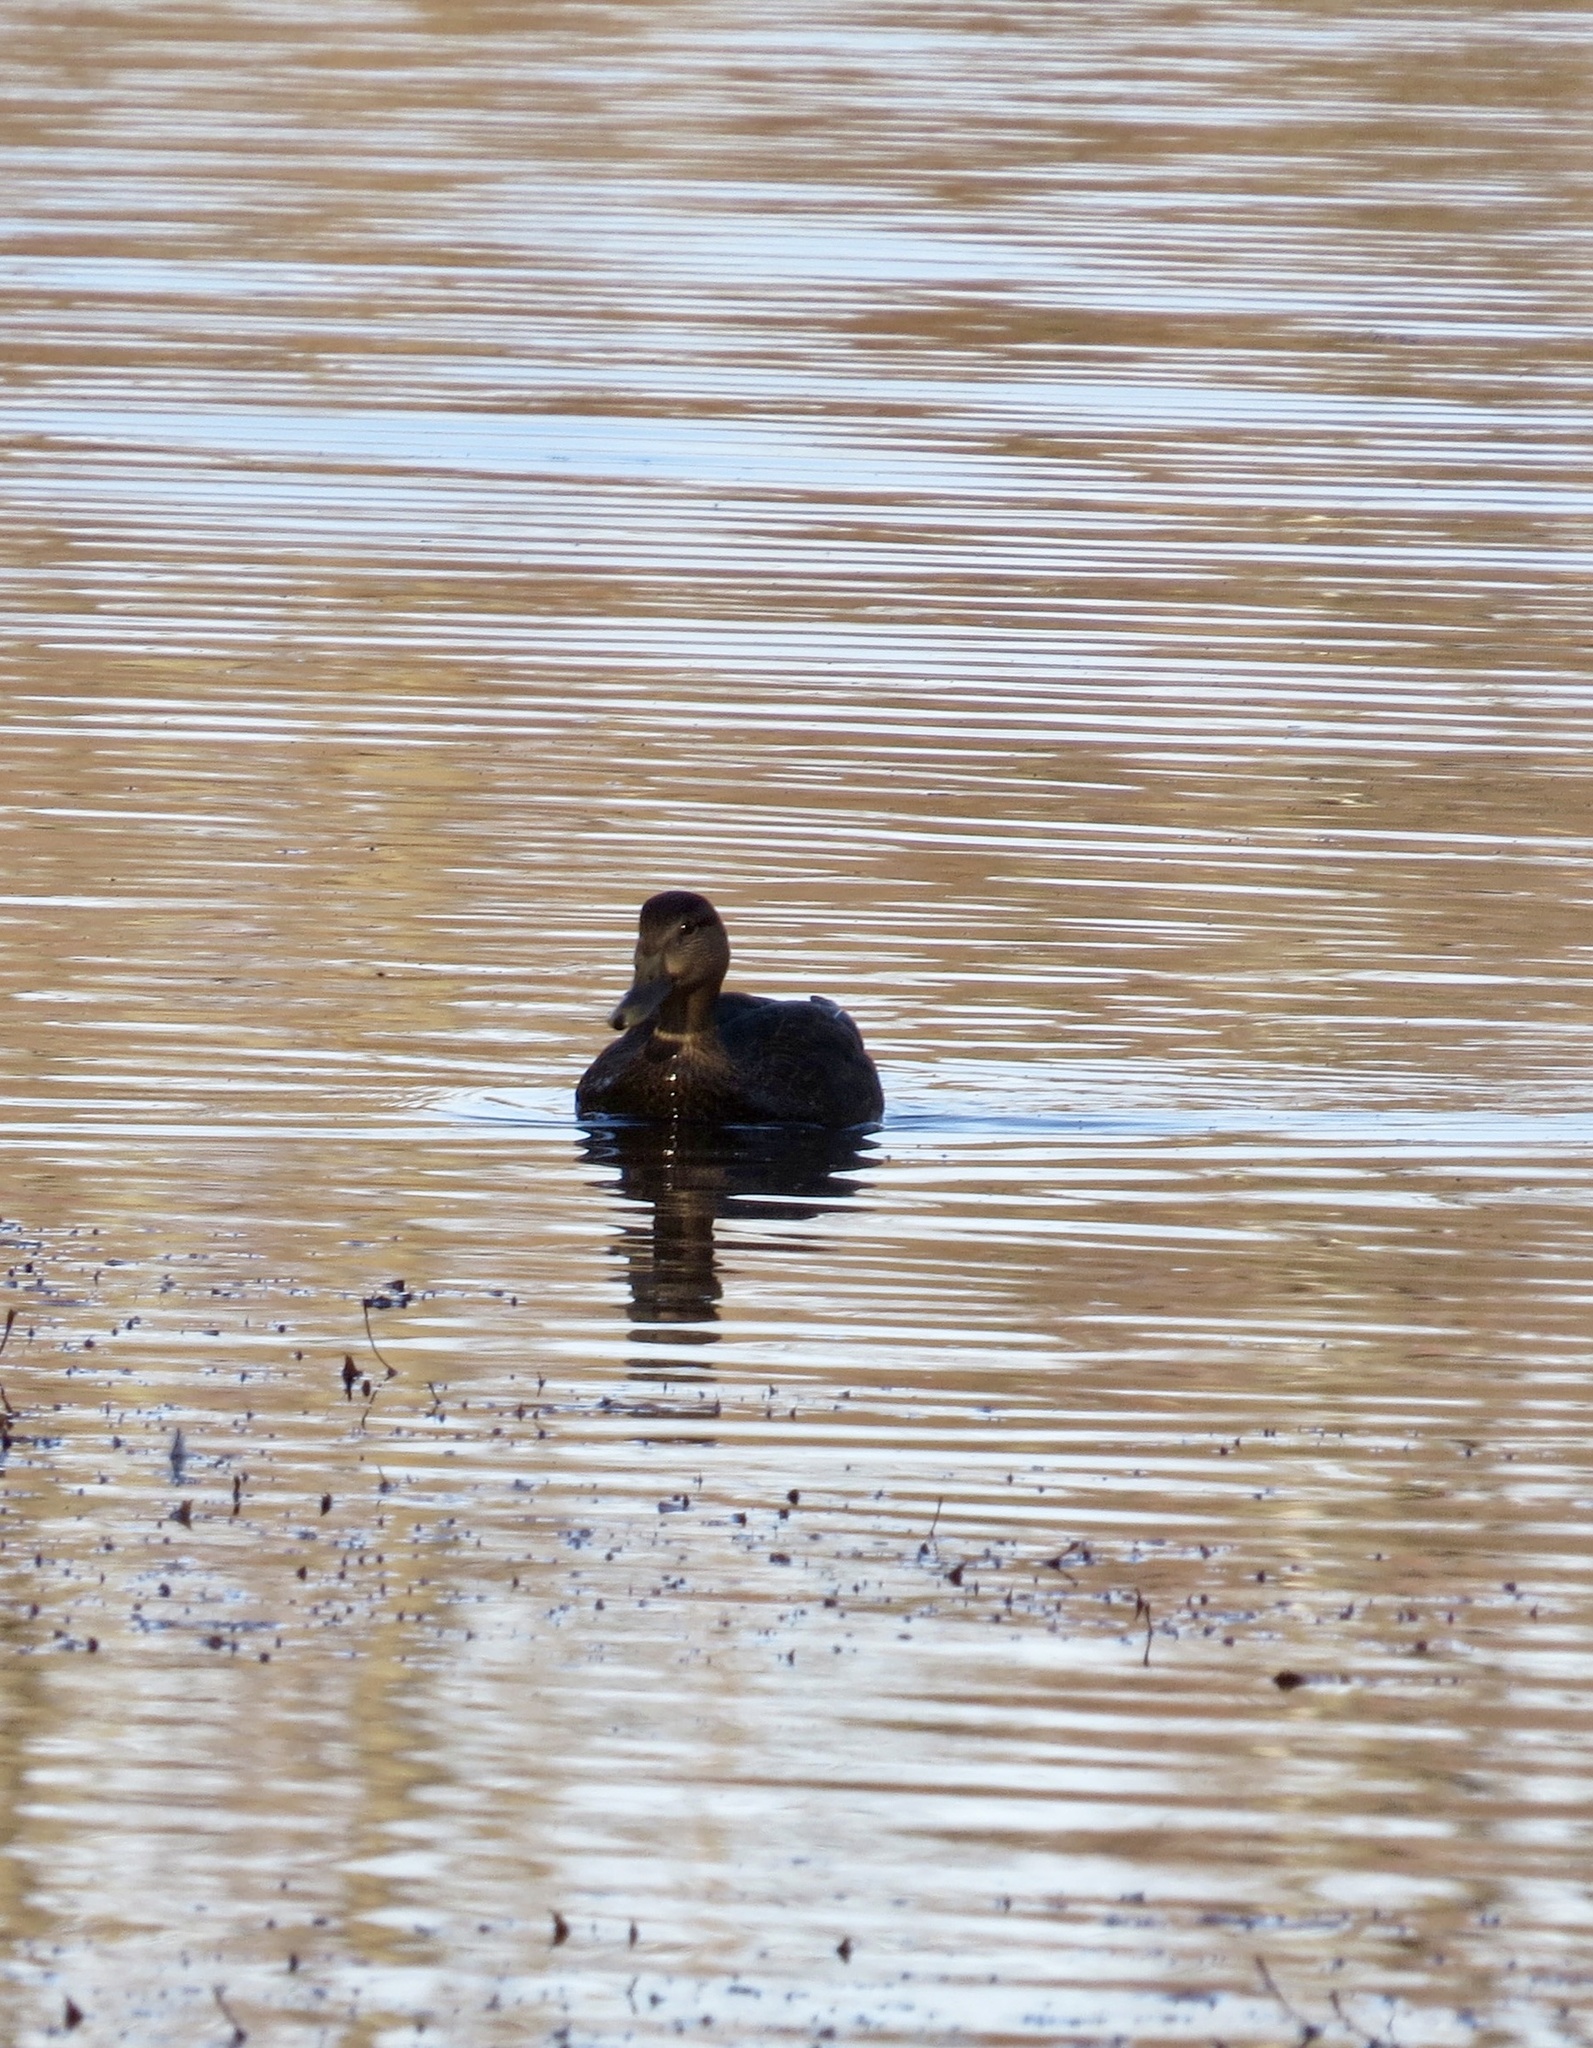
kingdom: Animalia
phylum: Chordata
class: Aves
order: Anseriformes
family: Anatidae
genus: Anas
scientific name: Anas rubripes
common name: American black duck
